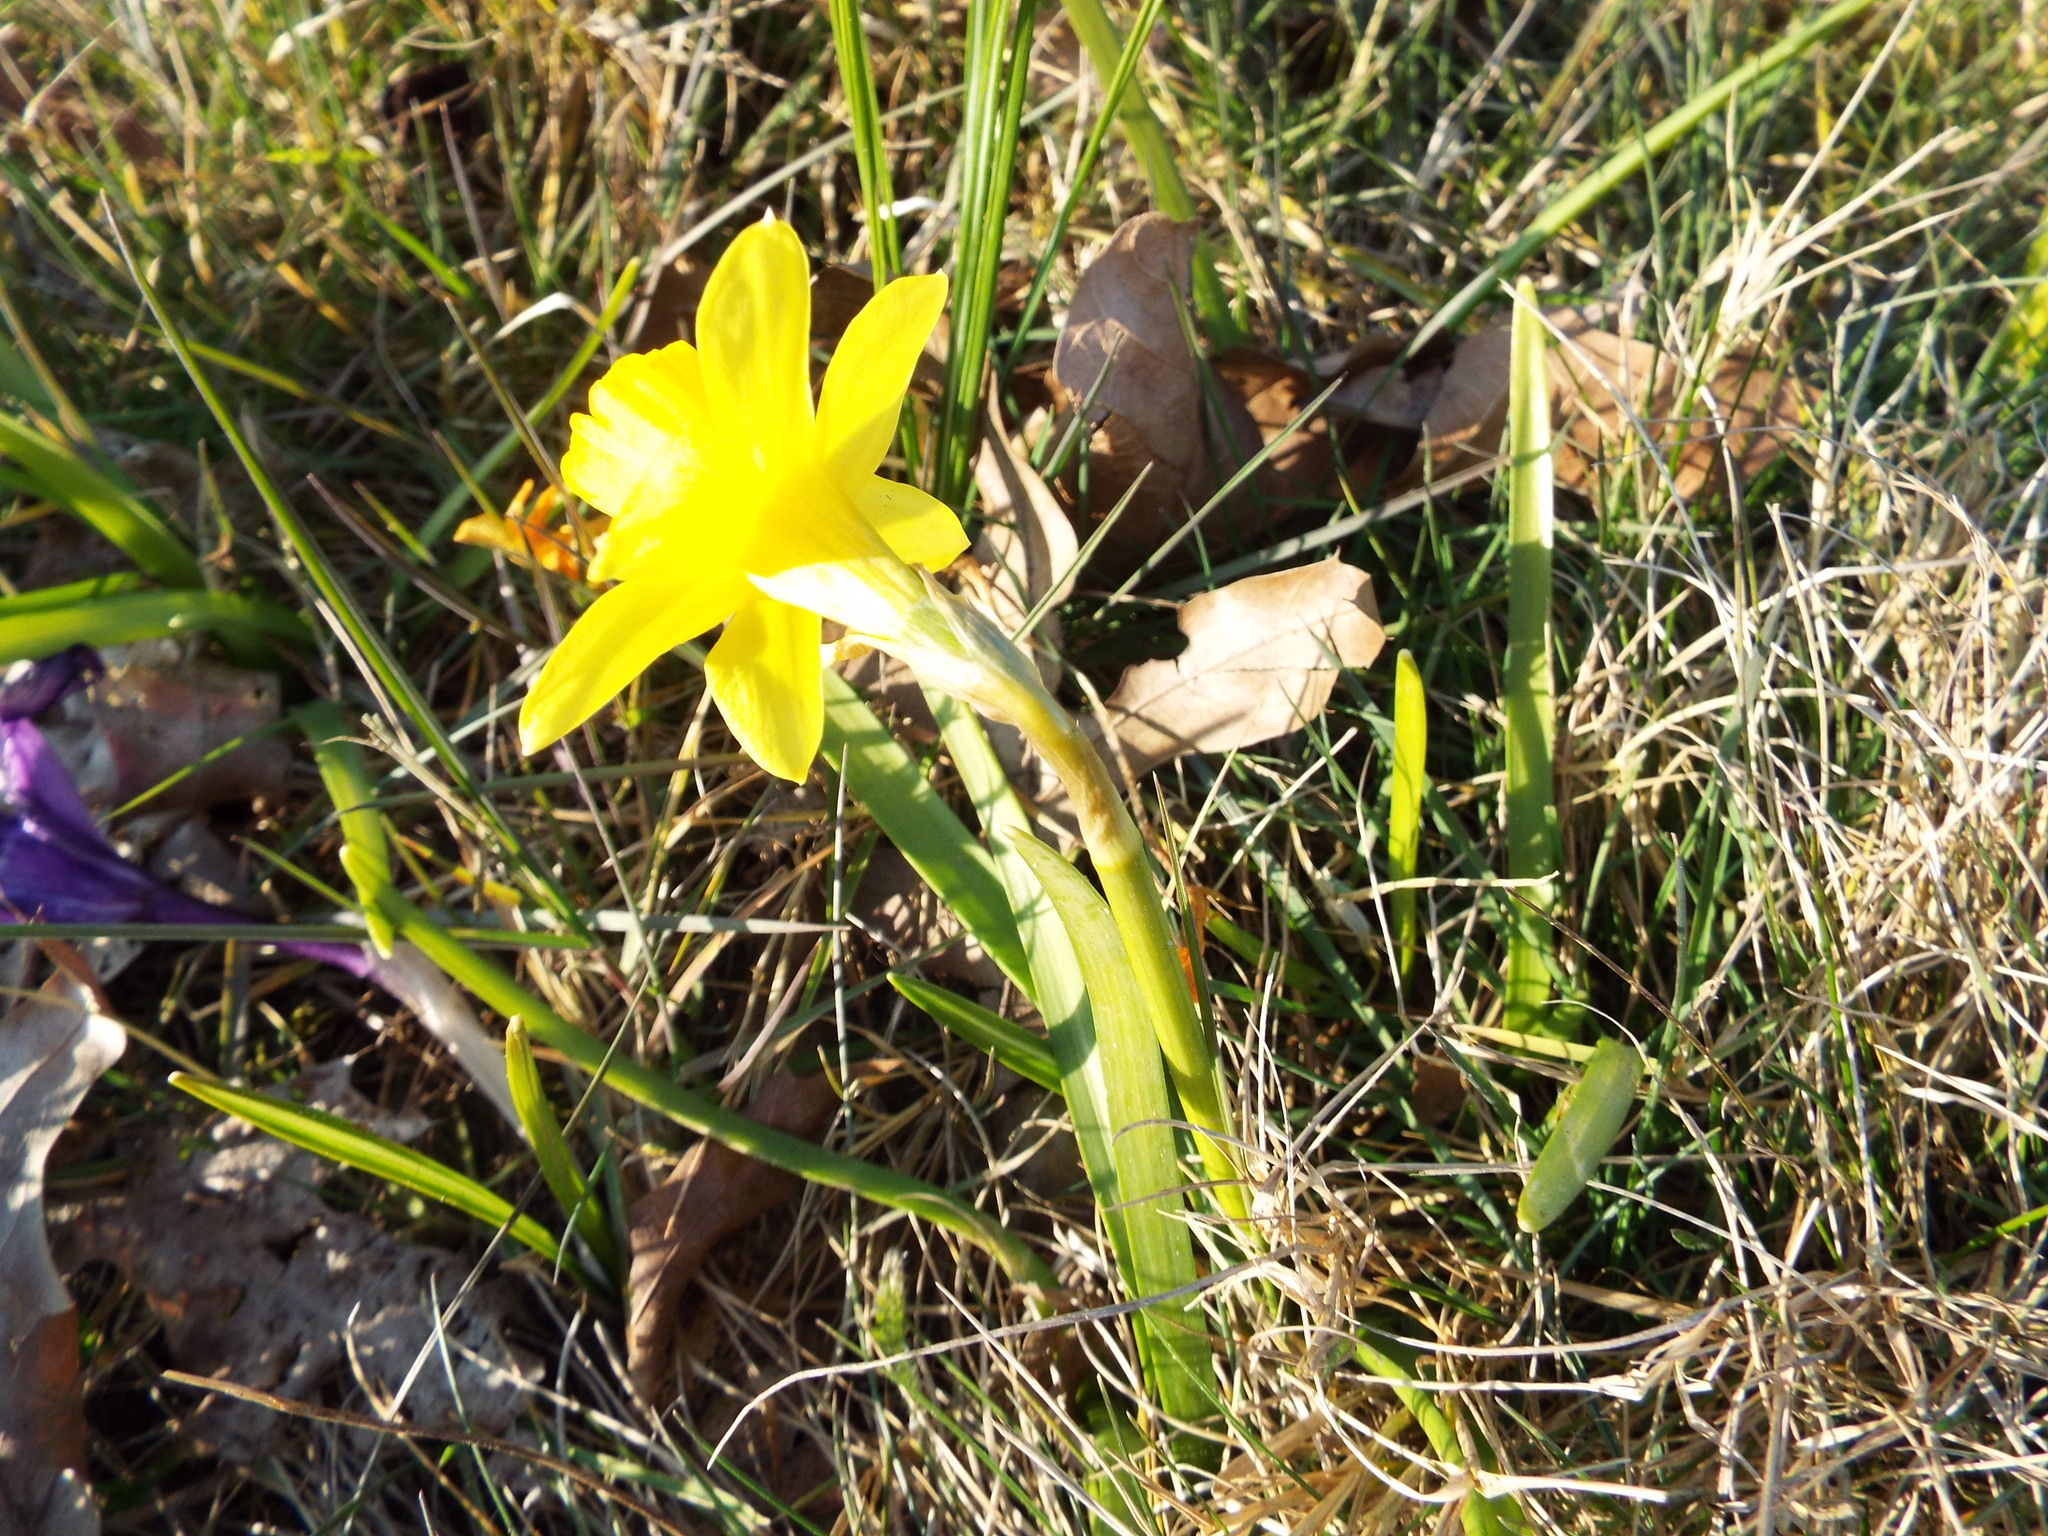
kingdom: Plantae
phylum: Tracheophyta
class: Liliopsida
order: Asparagales
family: Amaryllidaceae
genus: Narcissus
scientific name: Narcissus
